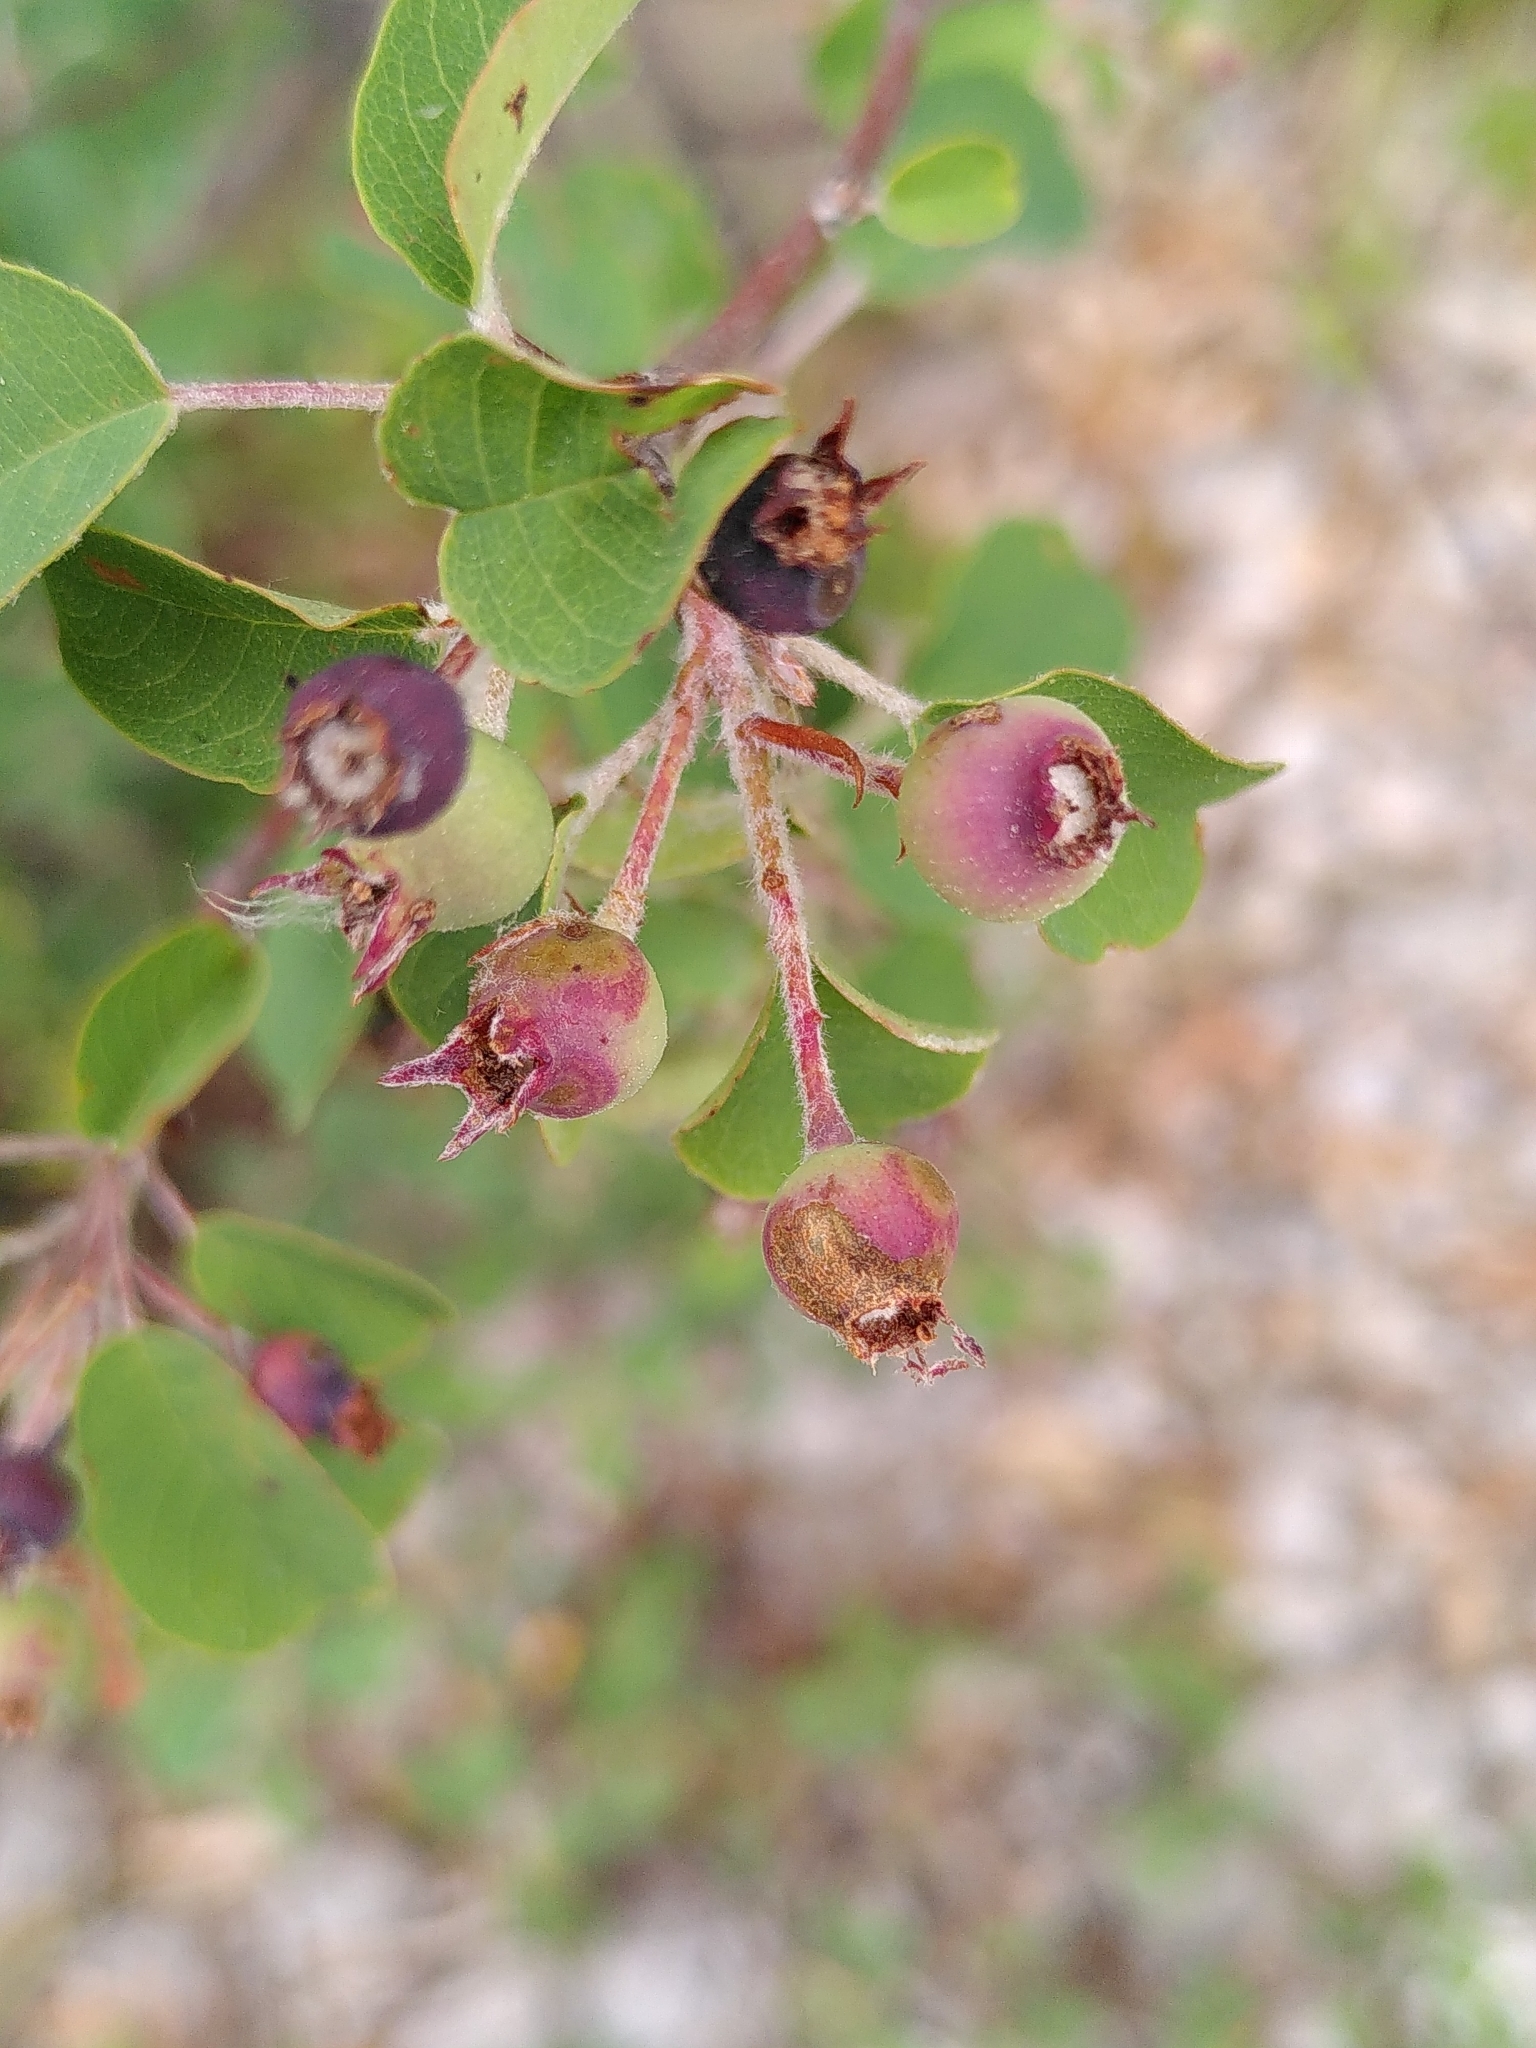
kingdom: Plantae
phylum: Tracheophyta
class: Magnoliopsida
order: Rosales
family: Rosaceae
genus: Amelanchier
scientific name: Amelanchier ovalis
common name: Serviceberry
